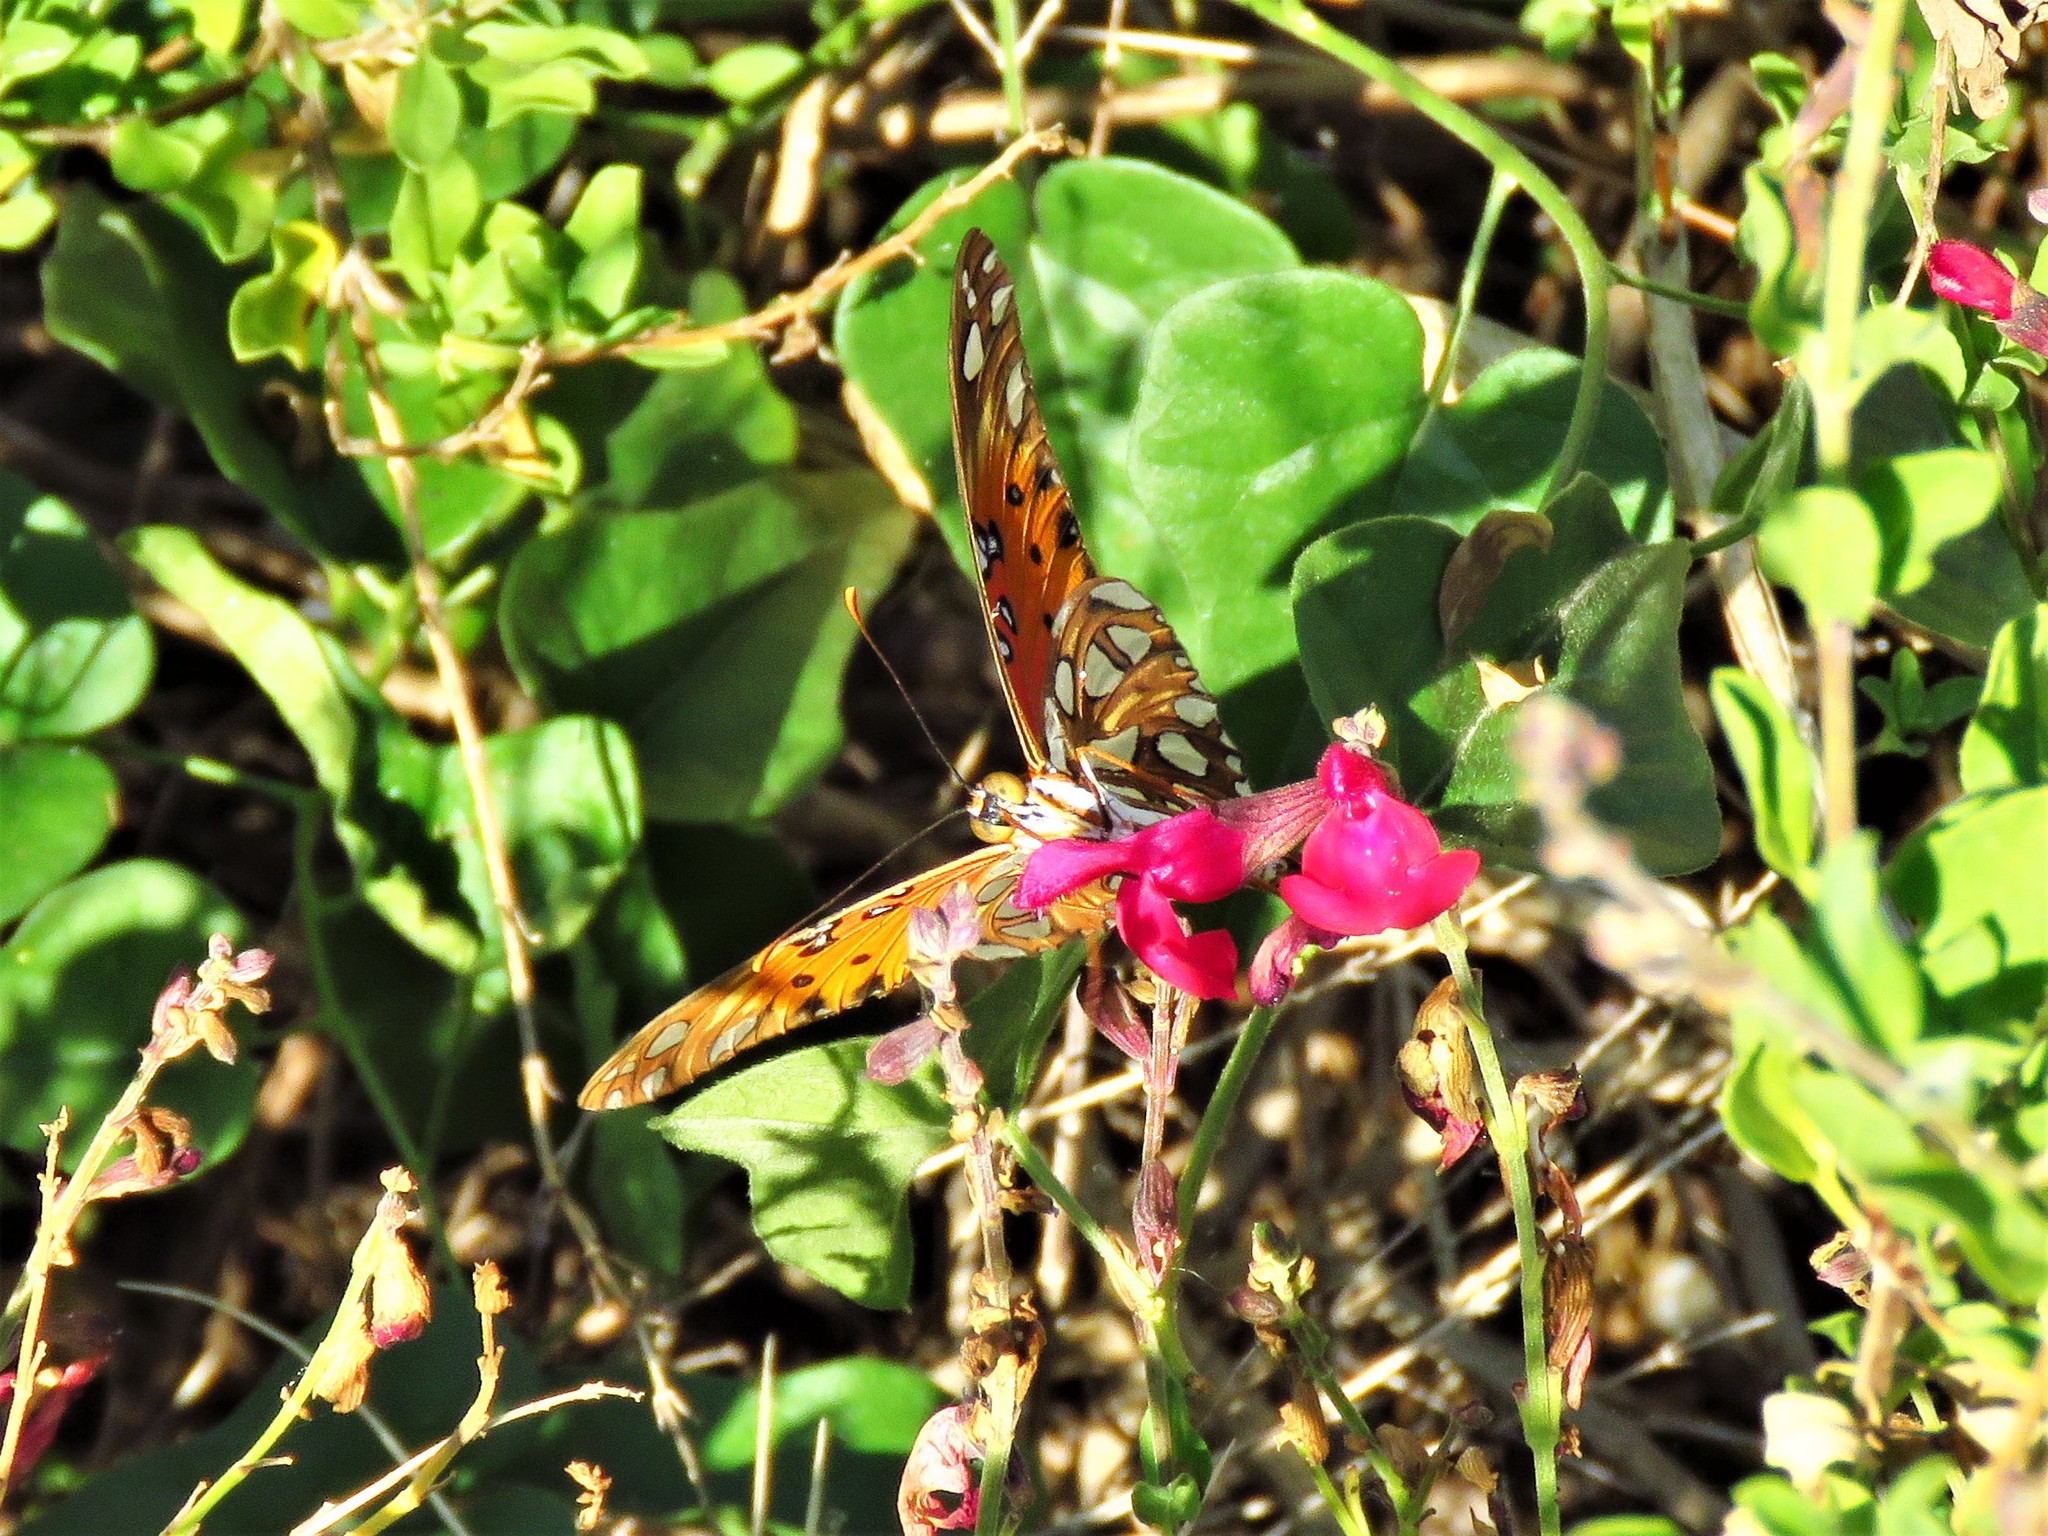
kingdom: Animalia
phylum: Arthropoda
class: Insecta
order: Lepidoptera
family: Nymphalidae
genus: Dione
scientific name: Dione vanillae
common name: Gulf fritillary
